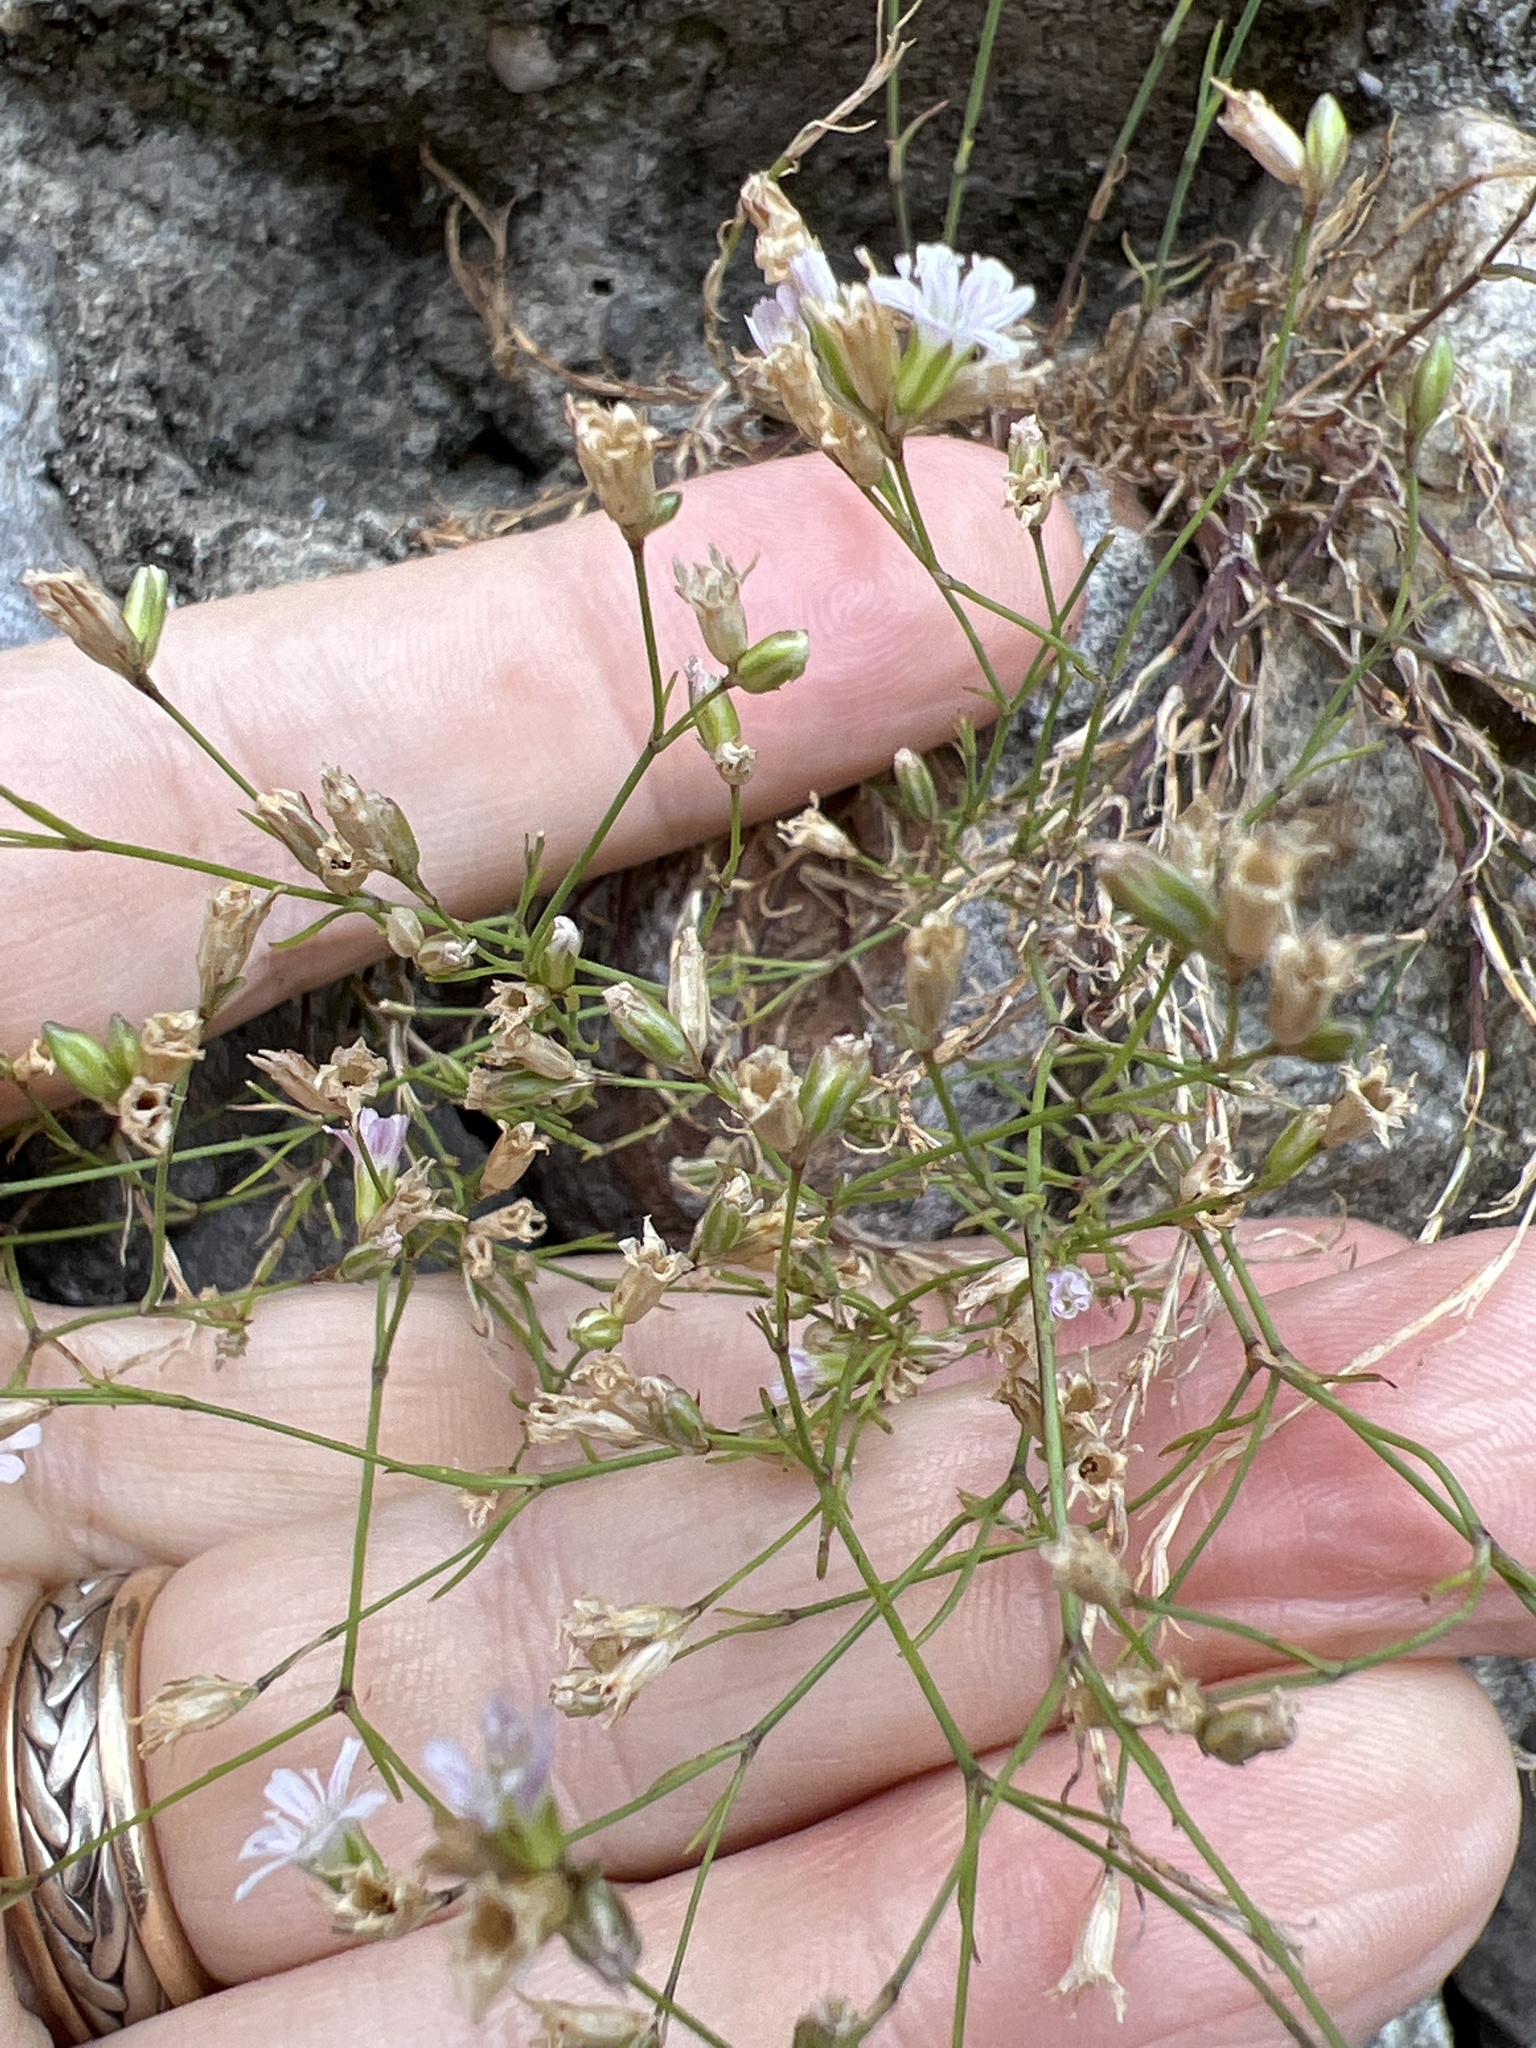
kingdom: Plantae
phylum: Tracheophyta
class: Magnoliopsida
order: Caryophyllales
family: Caryophyllaceae
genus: Petrorhagia
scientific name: Petrorhagia saxifraga
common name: Tunicflower
